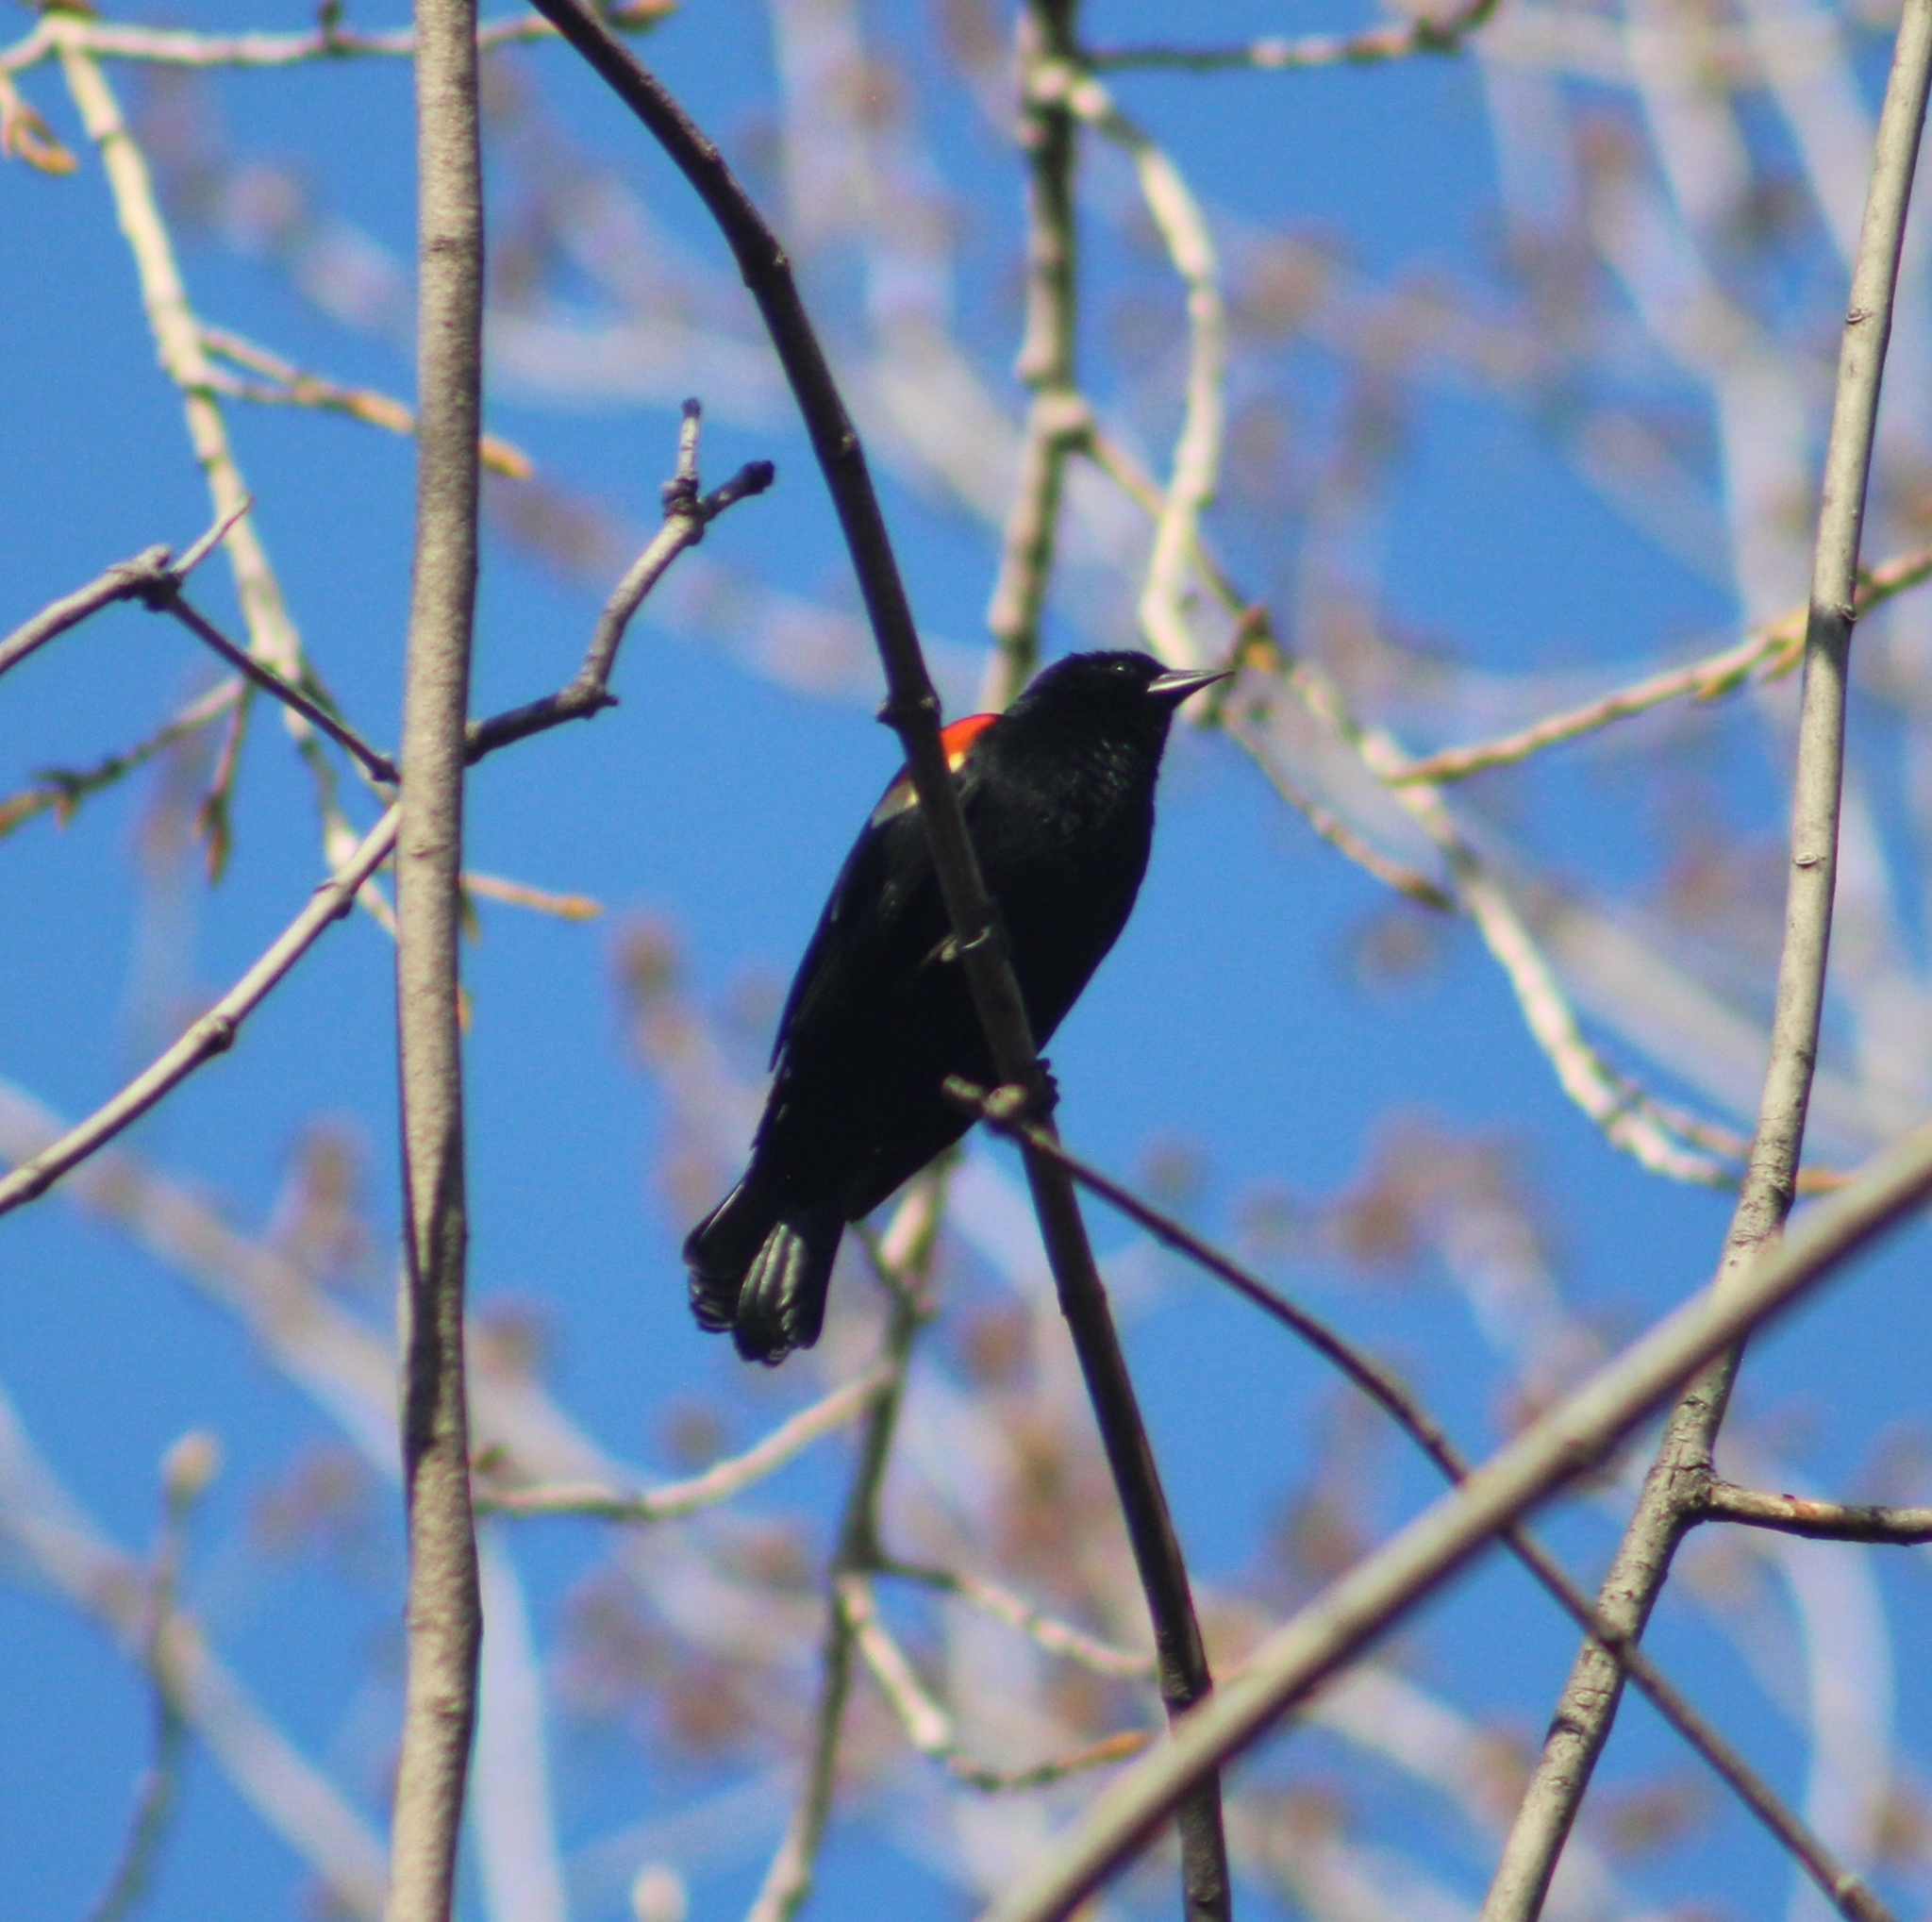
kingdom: Animalia
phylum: Chordata
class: Aves
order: Passeriformes
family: Icteridae
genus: Agelaius
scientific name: Agelaius phoeniceus
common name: Red-winged blackbird
